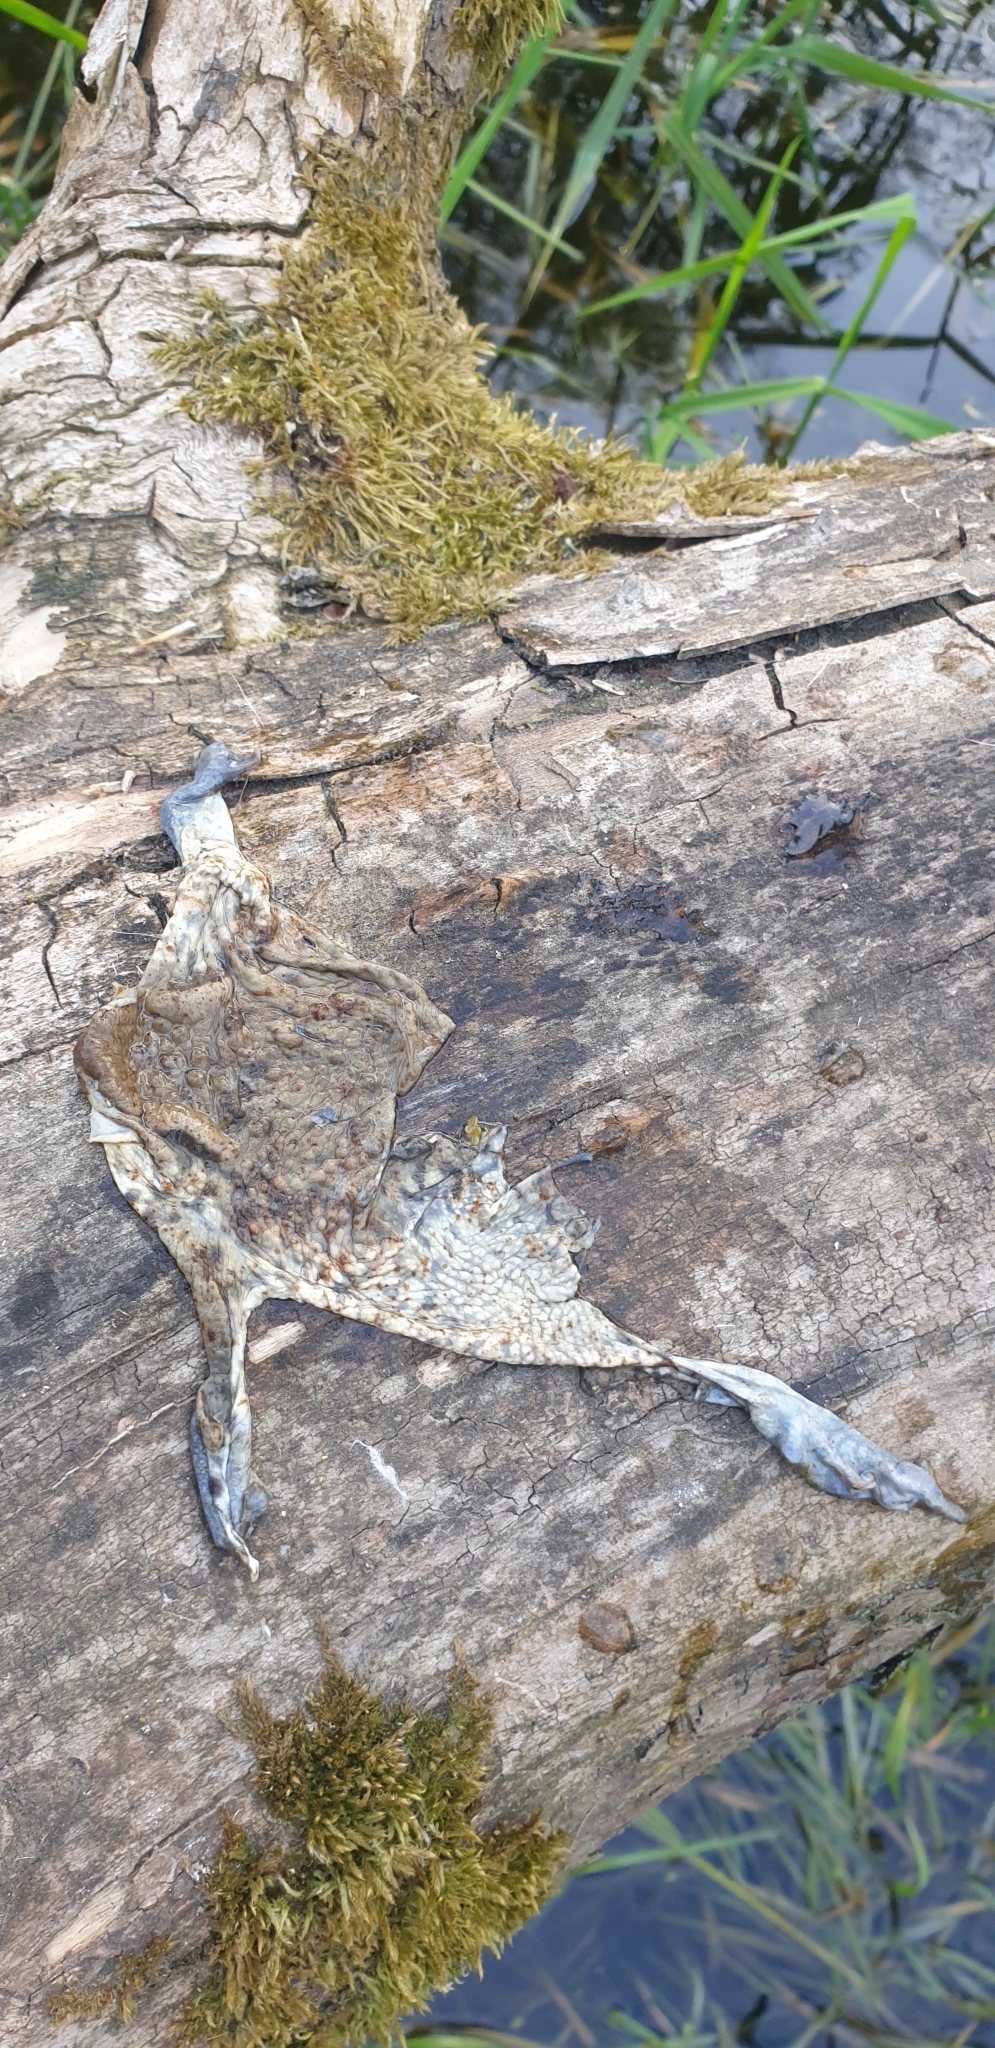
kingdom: Animalia
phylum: Chordata
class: Amphibia
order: Anura
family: Bufonidae
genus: Bufo
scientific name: Bufo bufo
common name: Common toad
